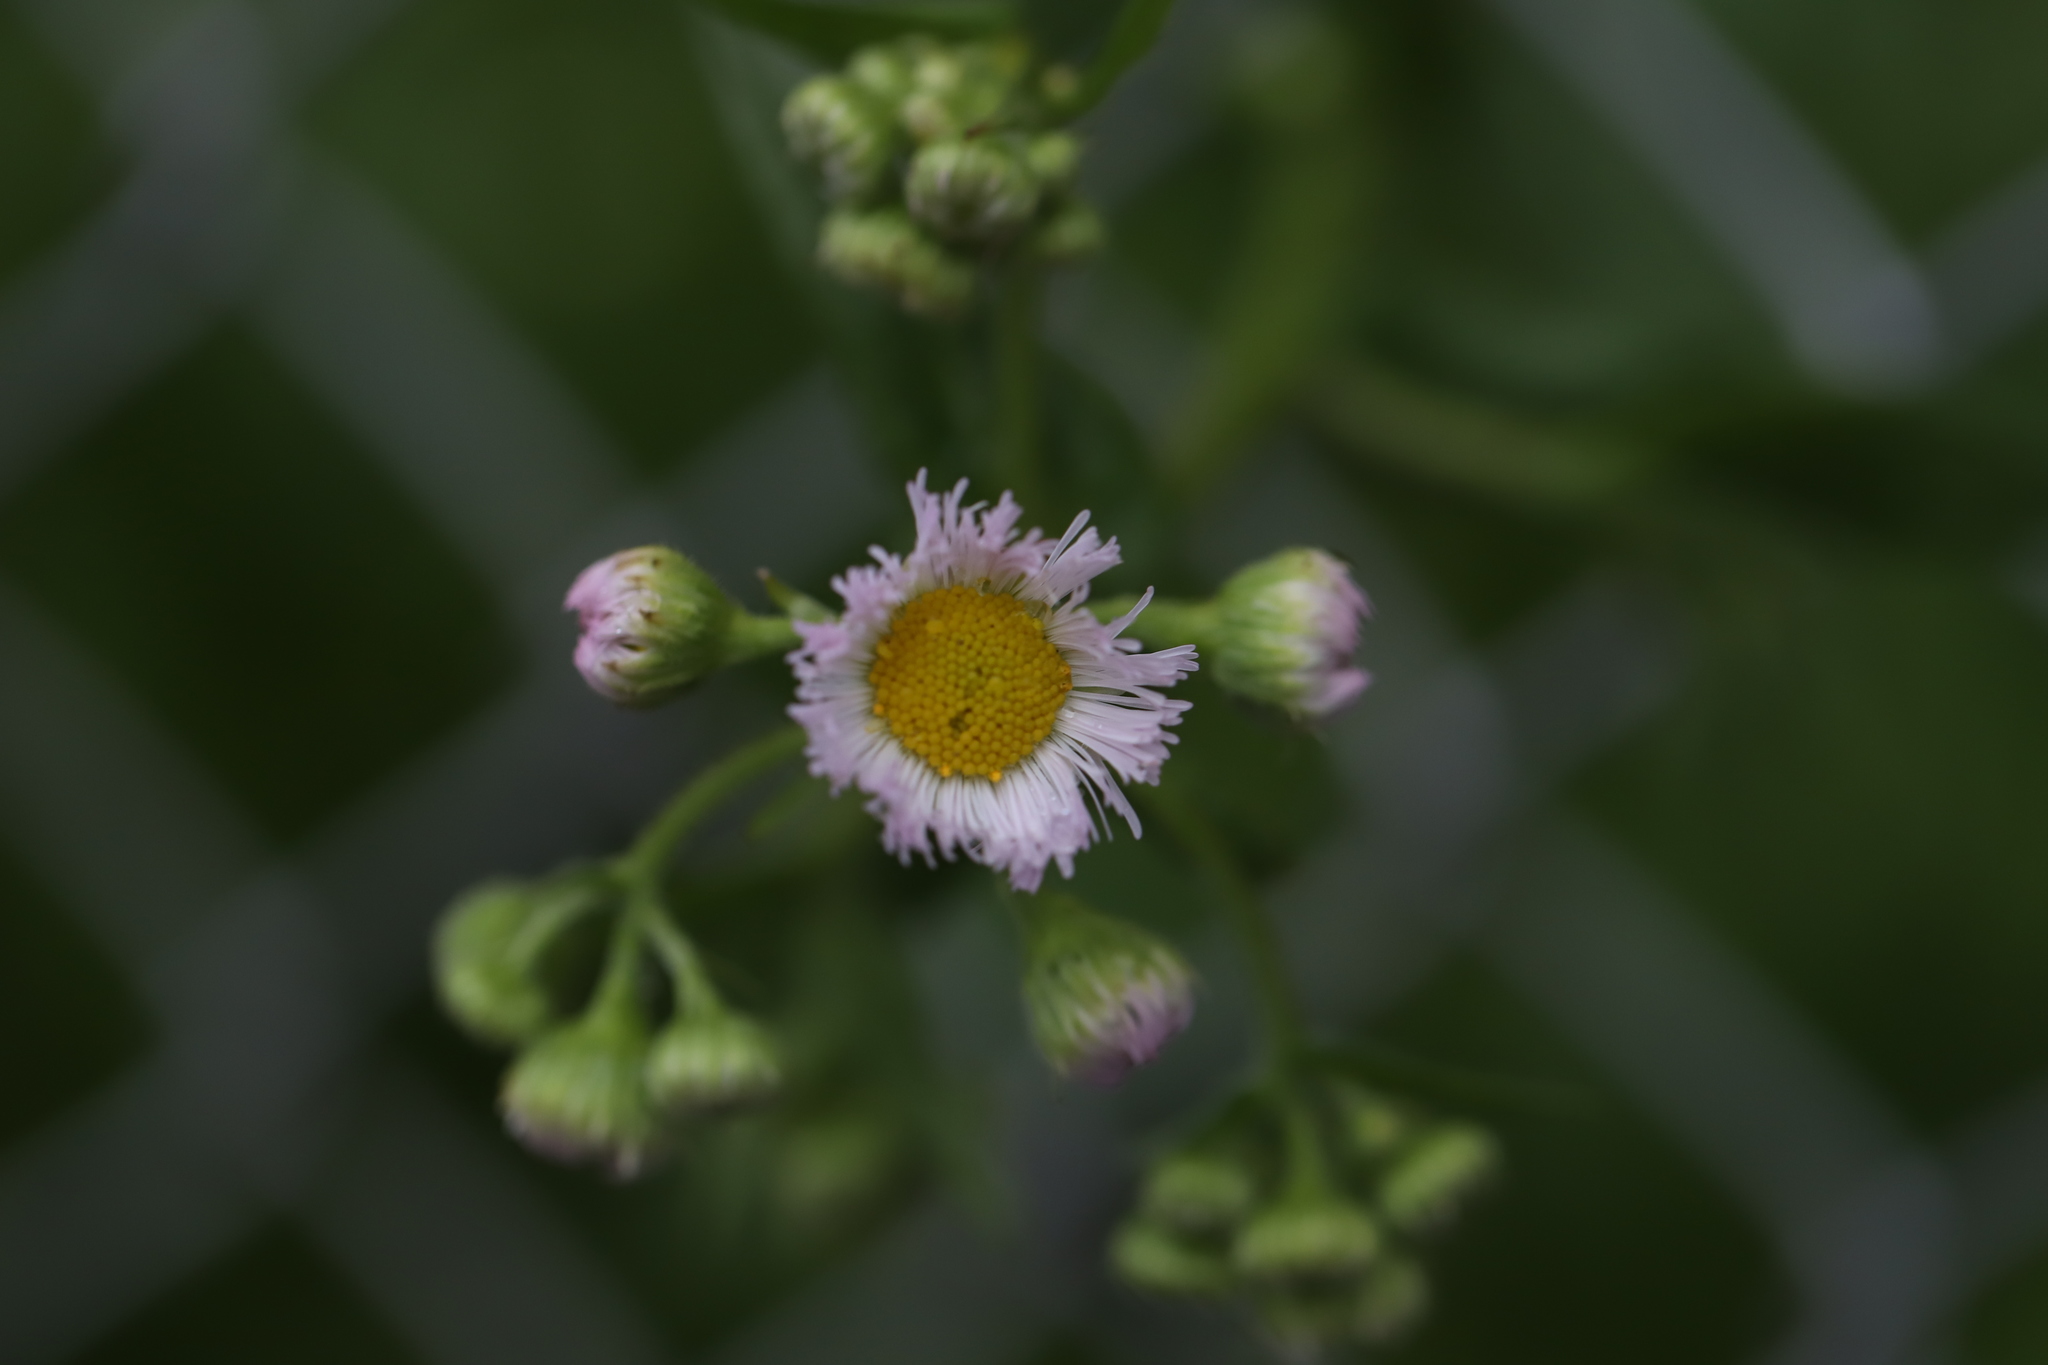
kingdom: Plantae
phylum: Tracheophyta
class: Magnoliopsida
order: Asterales
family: Asteraceae
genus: Erigeron
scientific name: Erigeron philadelphicus
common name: Robin's-plantain
